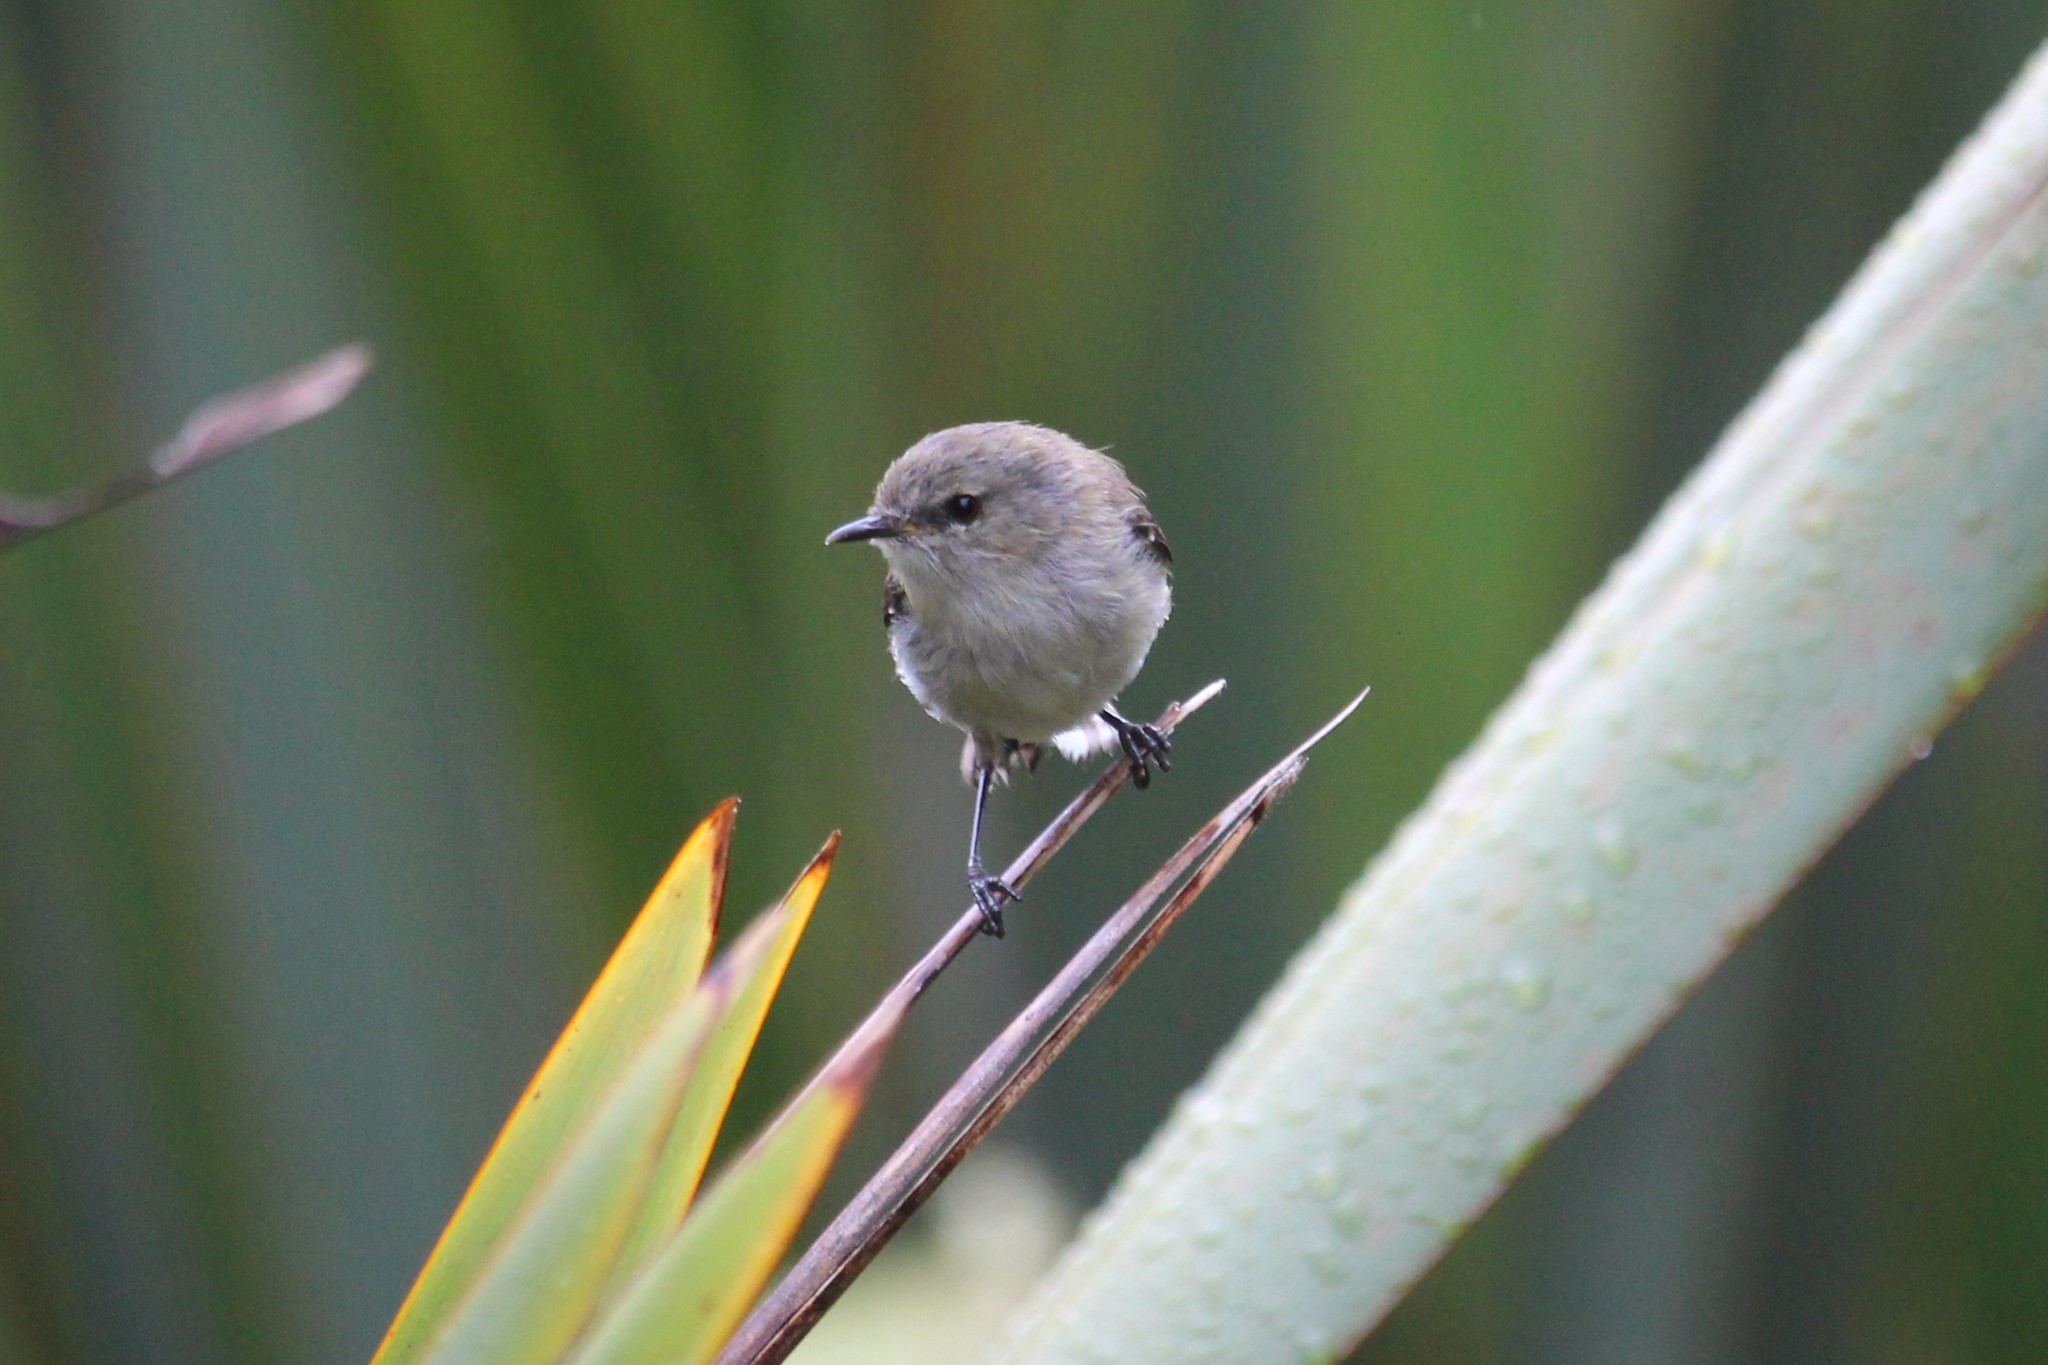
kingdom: Animalia
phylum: Chordata
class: Aves
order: Passeriformes
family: Acanthizidae
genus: Gerygone
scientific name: Gerygone igata
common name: Grey gerygone
